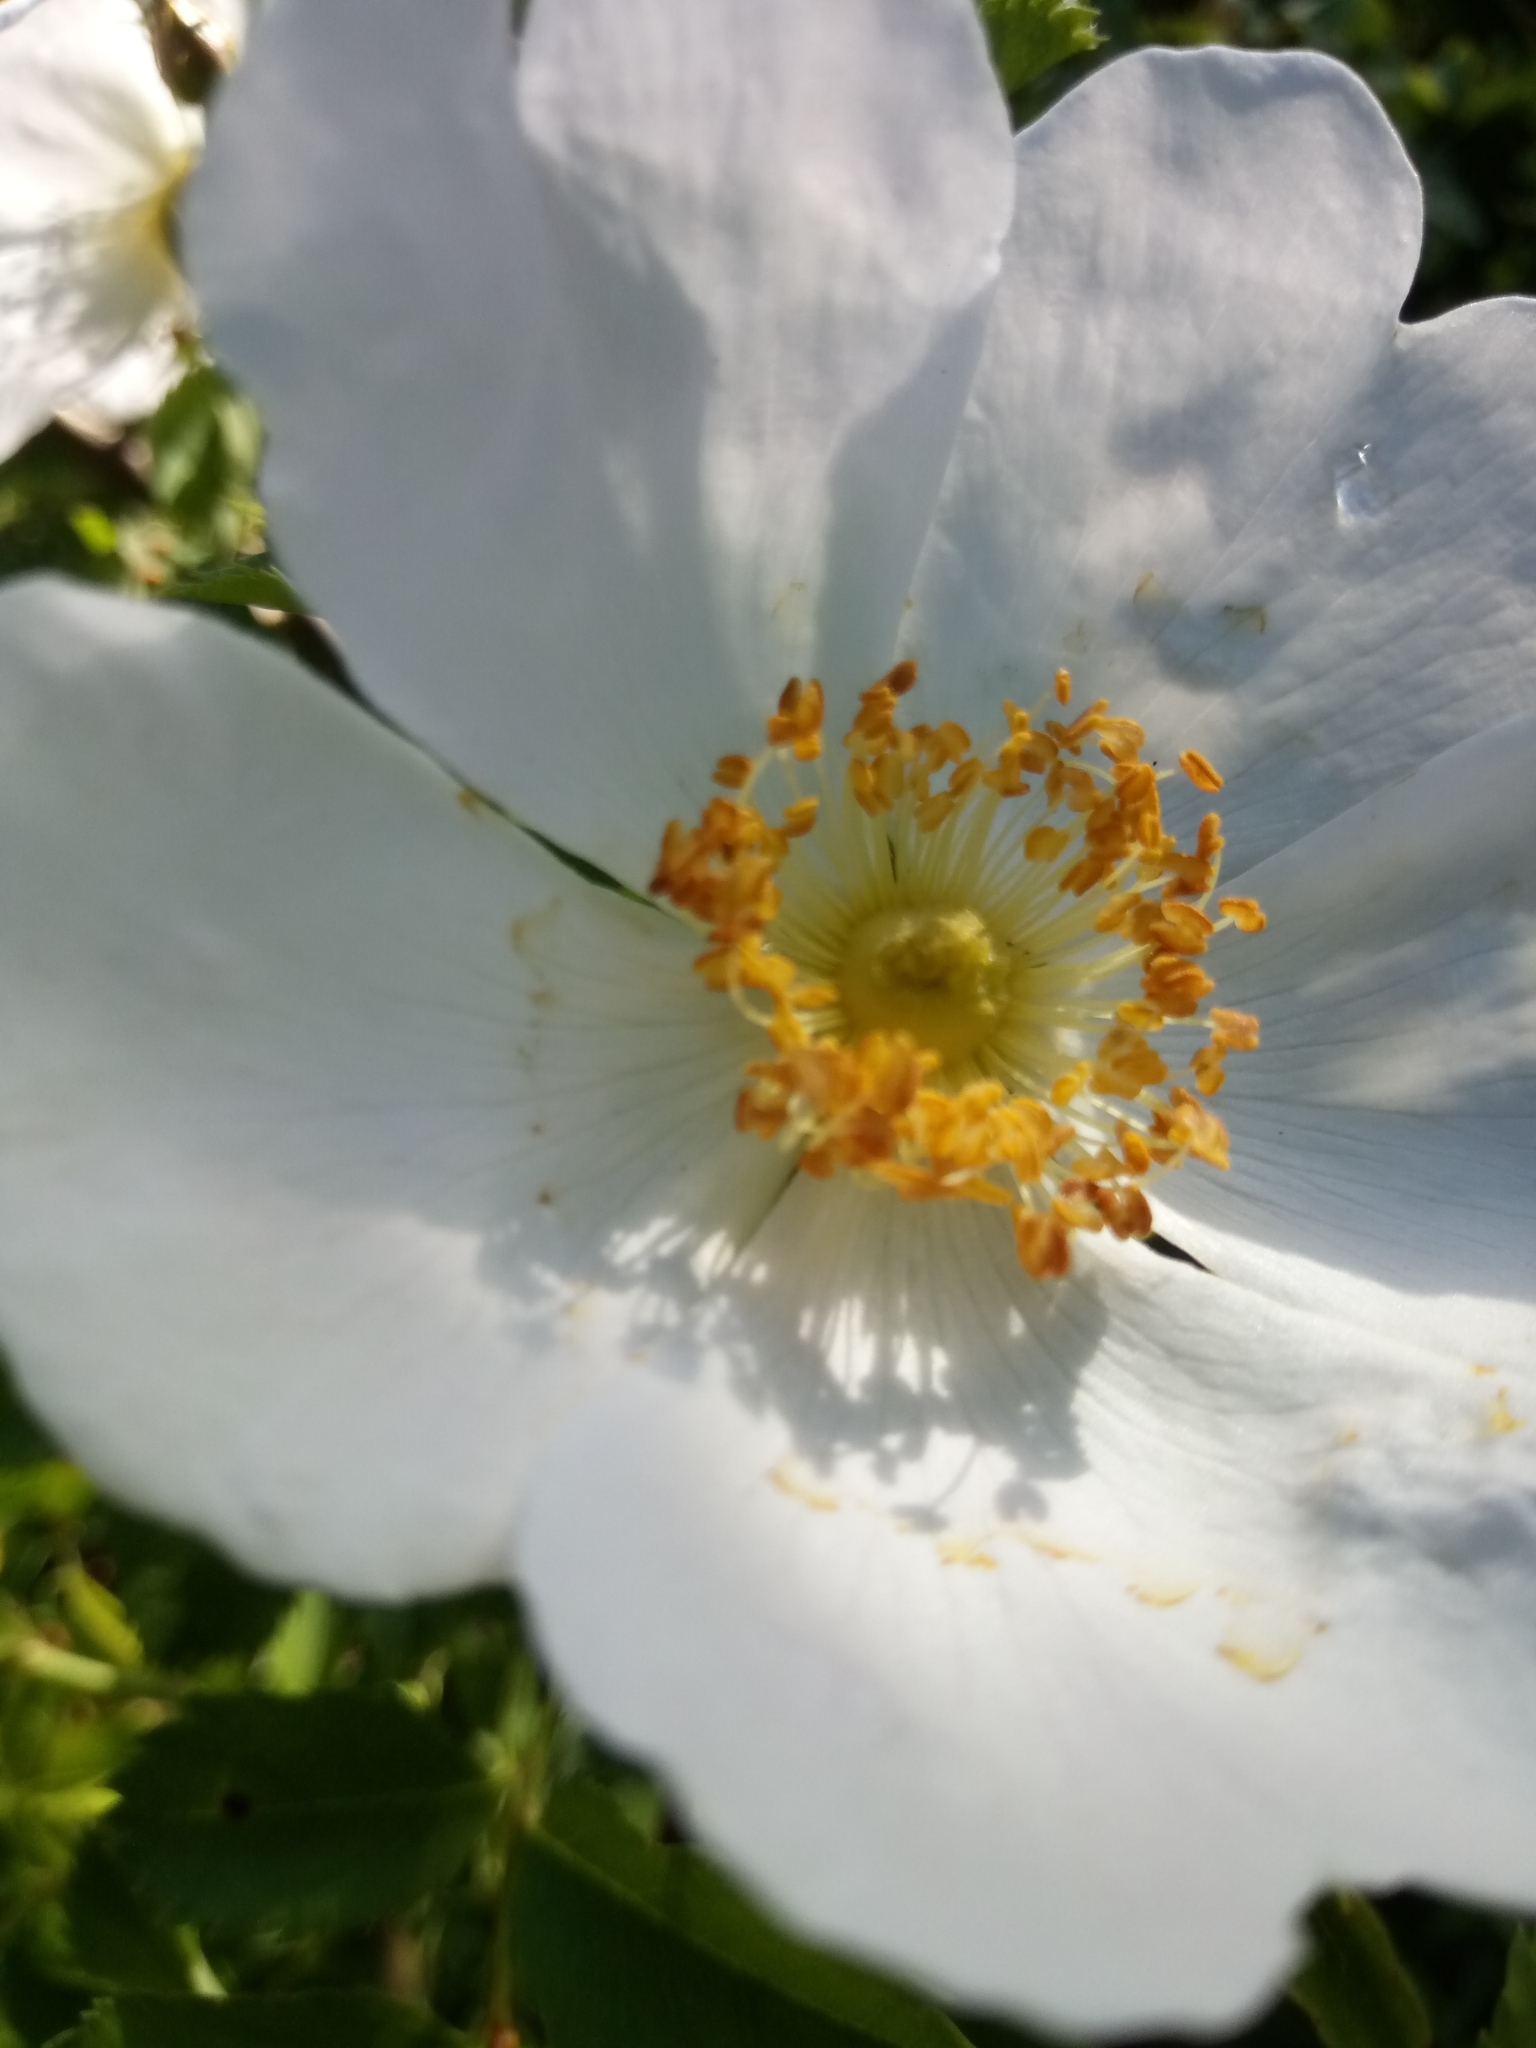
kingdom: Plantae
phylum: Tracheophyta
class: Magnoliopsida
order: Rosales
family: Rosaceae
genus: Rosa
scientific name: Rosa canina
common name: Dog rose
